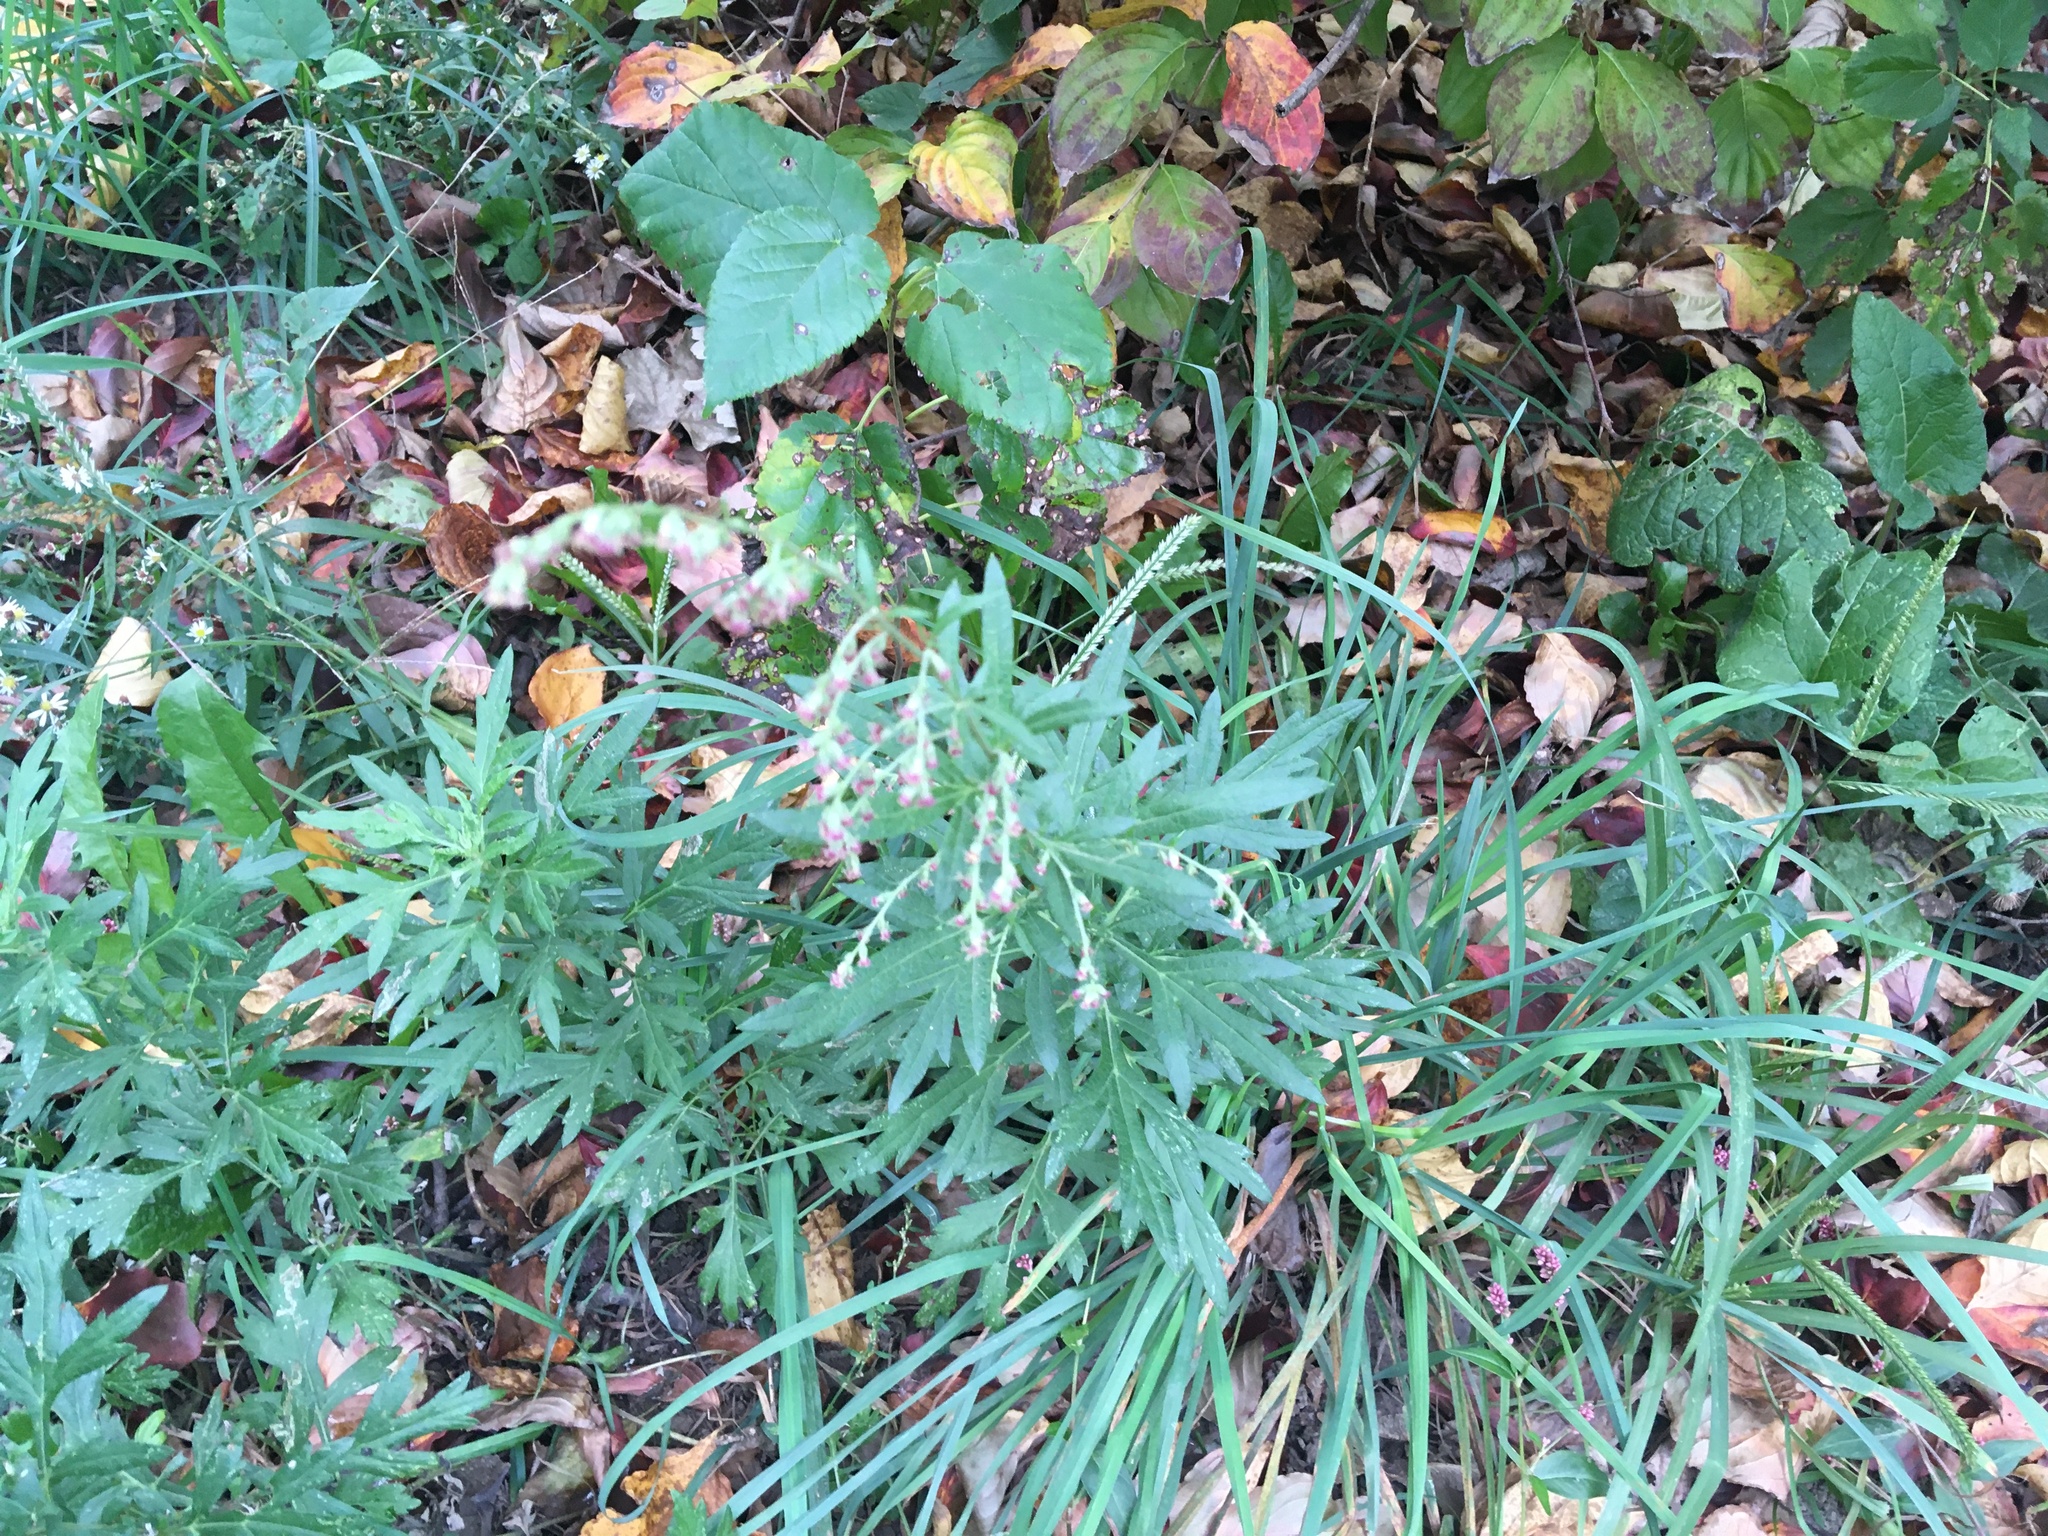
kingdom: Plantae
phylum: Tracheophyta
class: Magnoliopsida
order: Asterales
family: Asteraceae
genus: Artemisia
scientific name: Artemisia vulgaris
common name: Mugwort
